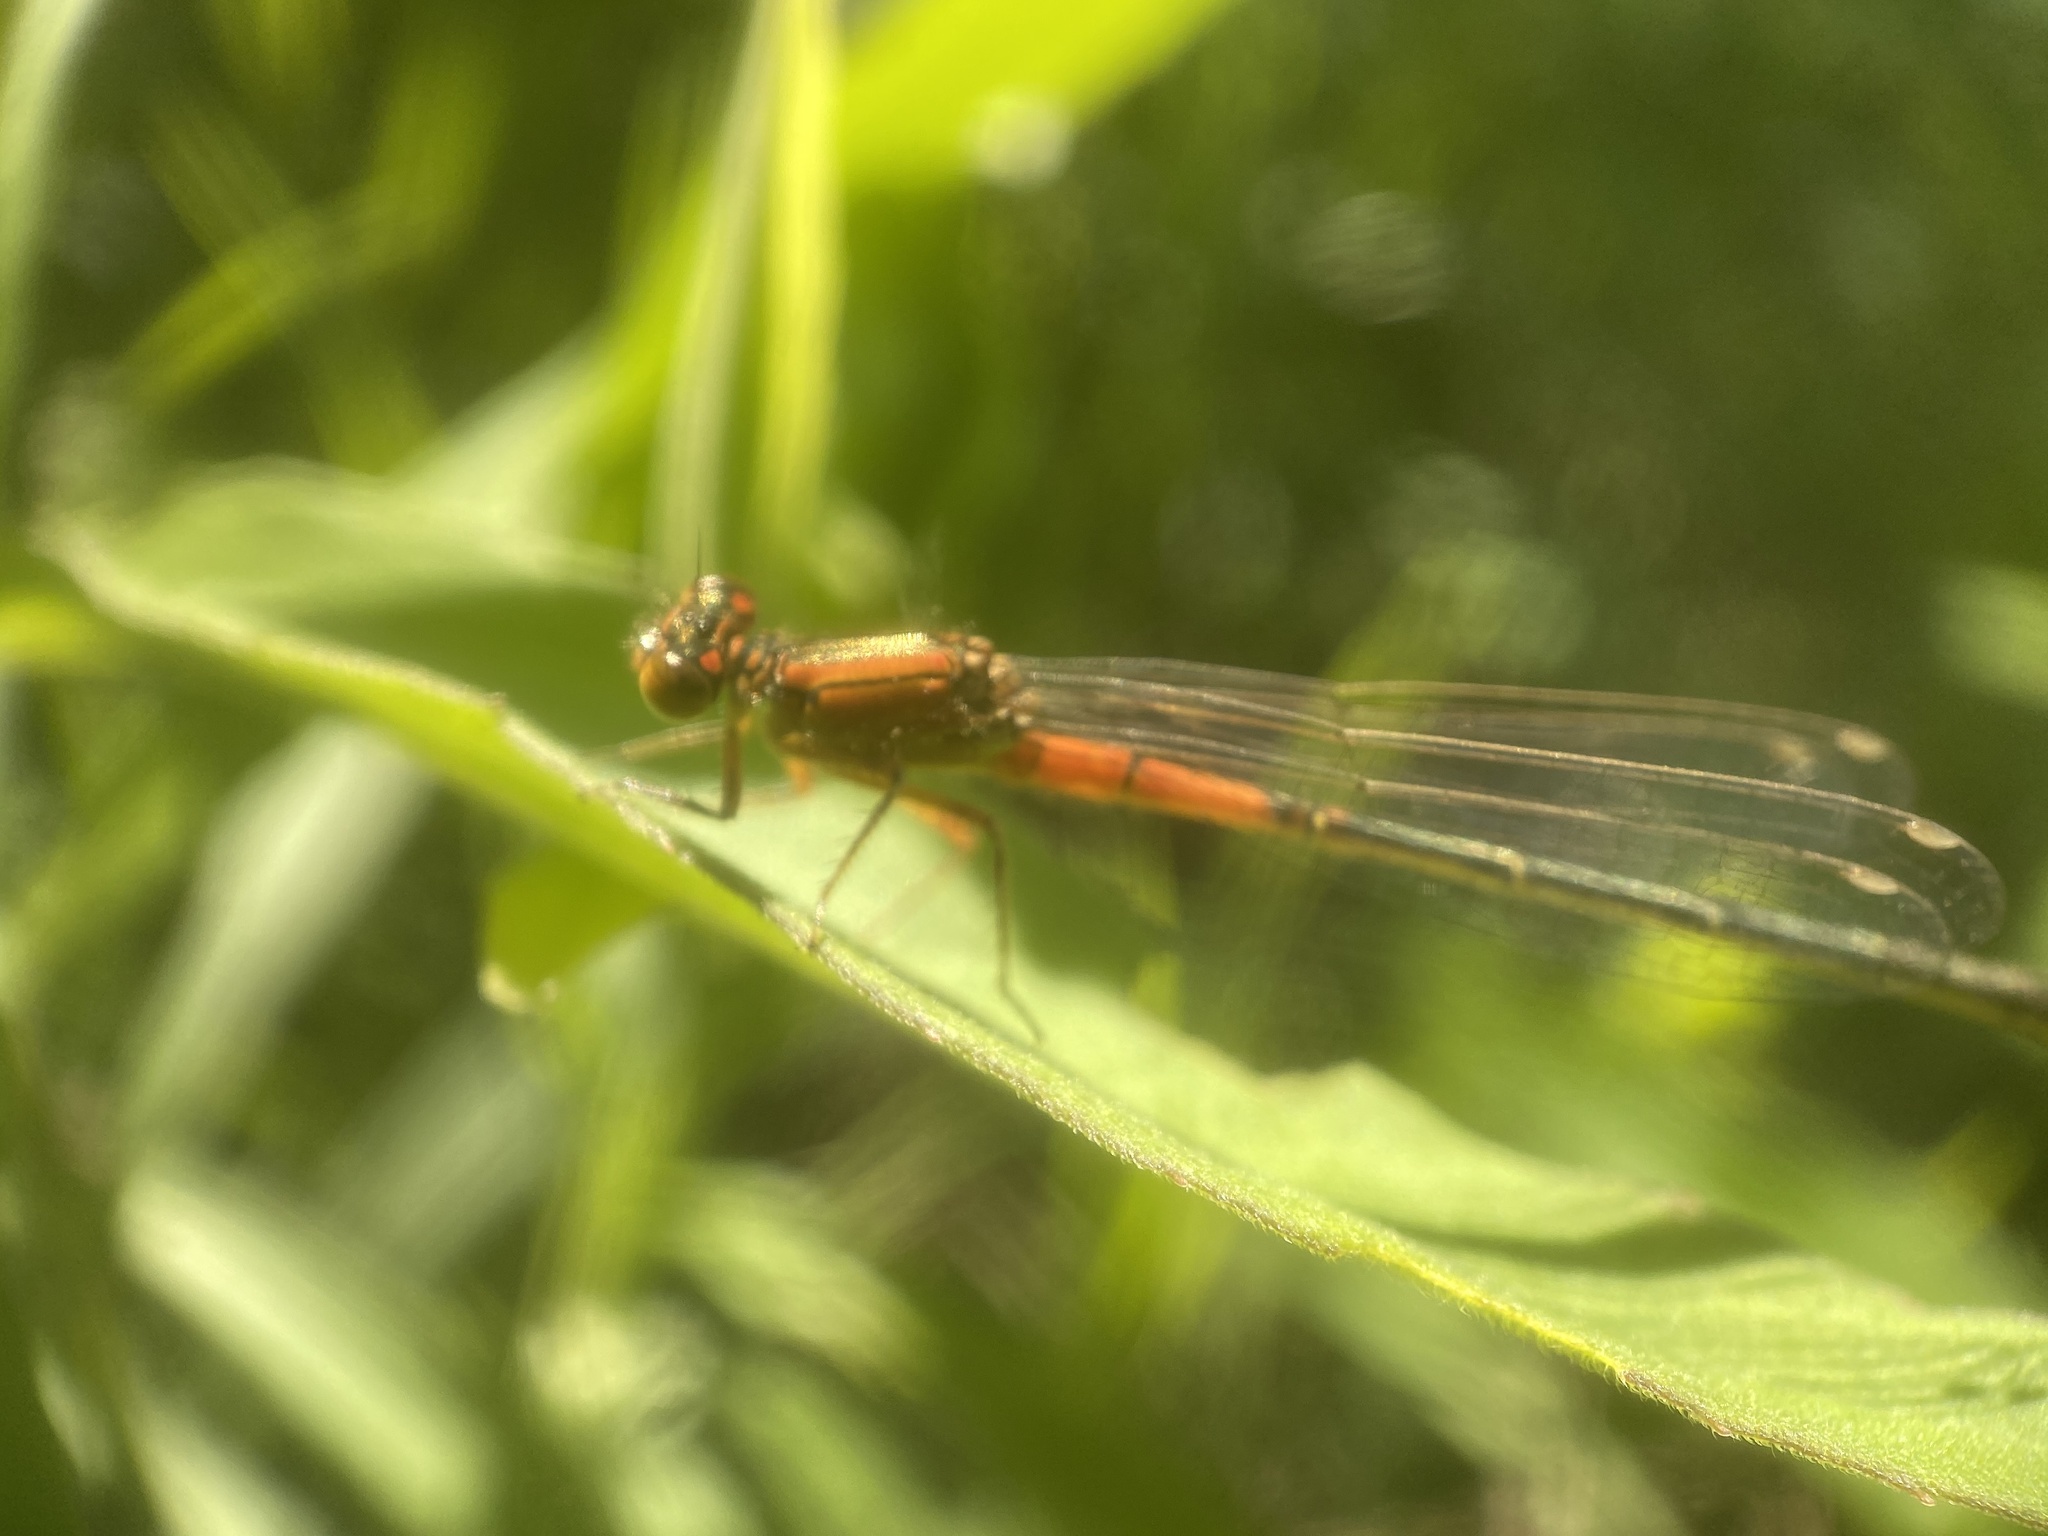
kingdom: Animalia
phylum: Arthropoda
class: Insecta
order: Odonata
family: Coenagrionidae
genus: Ischnura
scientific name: Ischnura verticalis
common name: Eastern forktail
